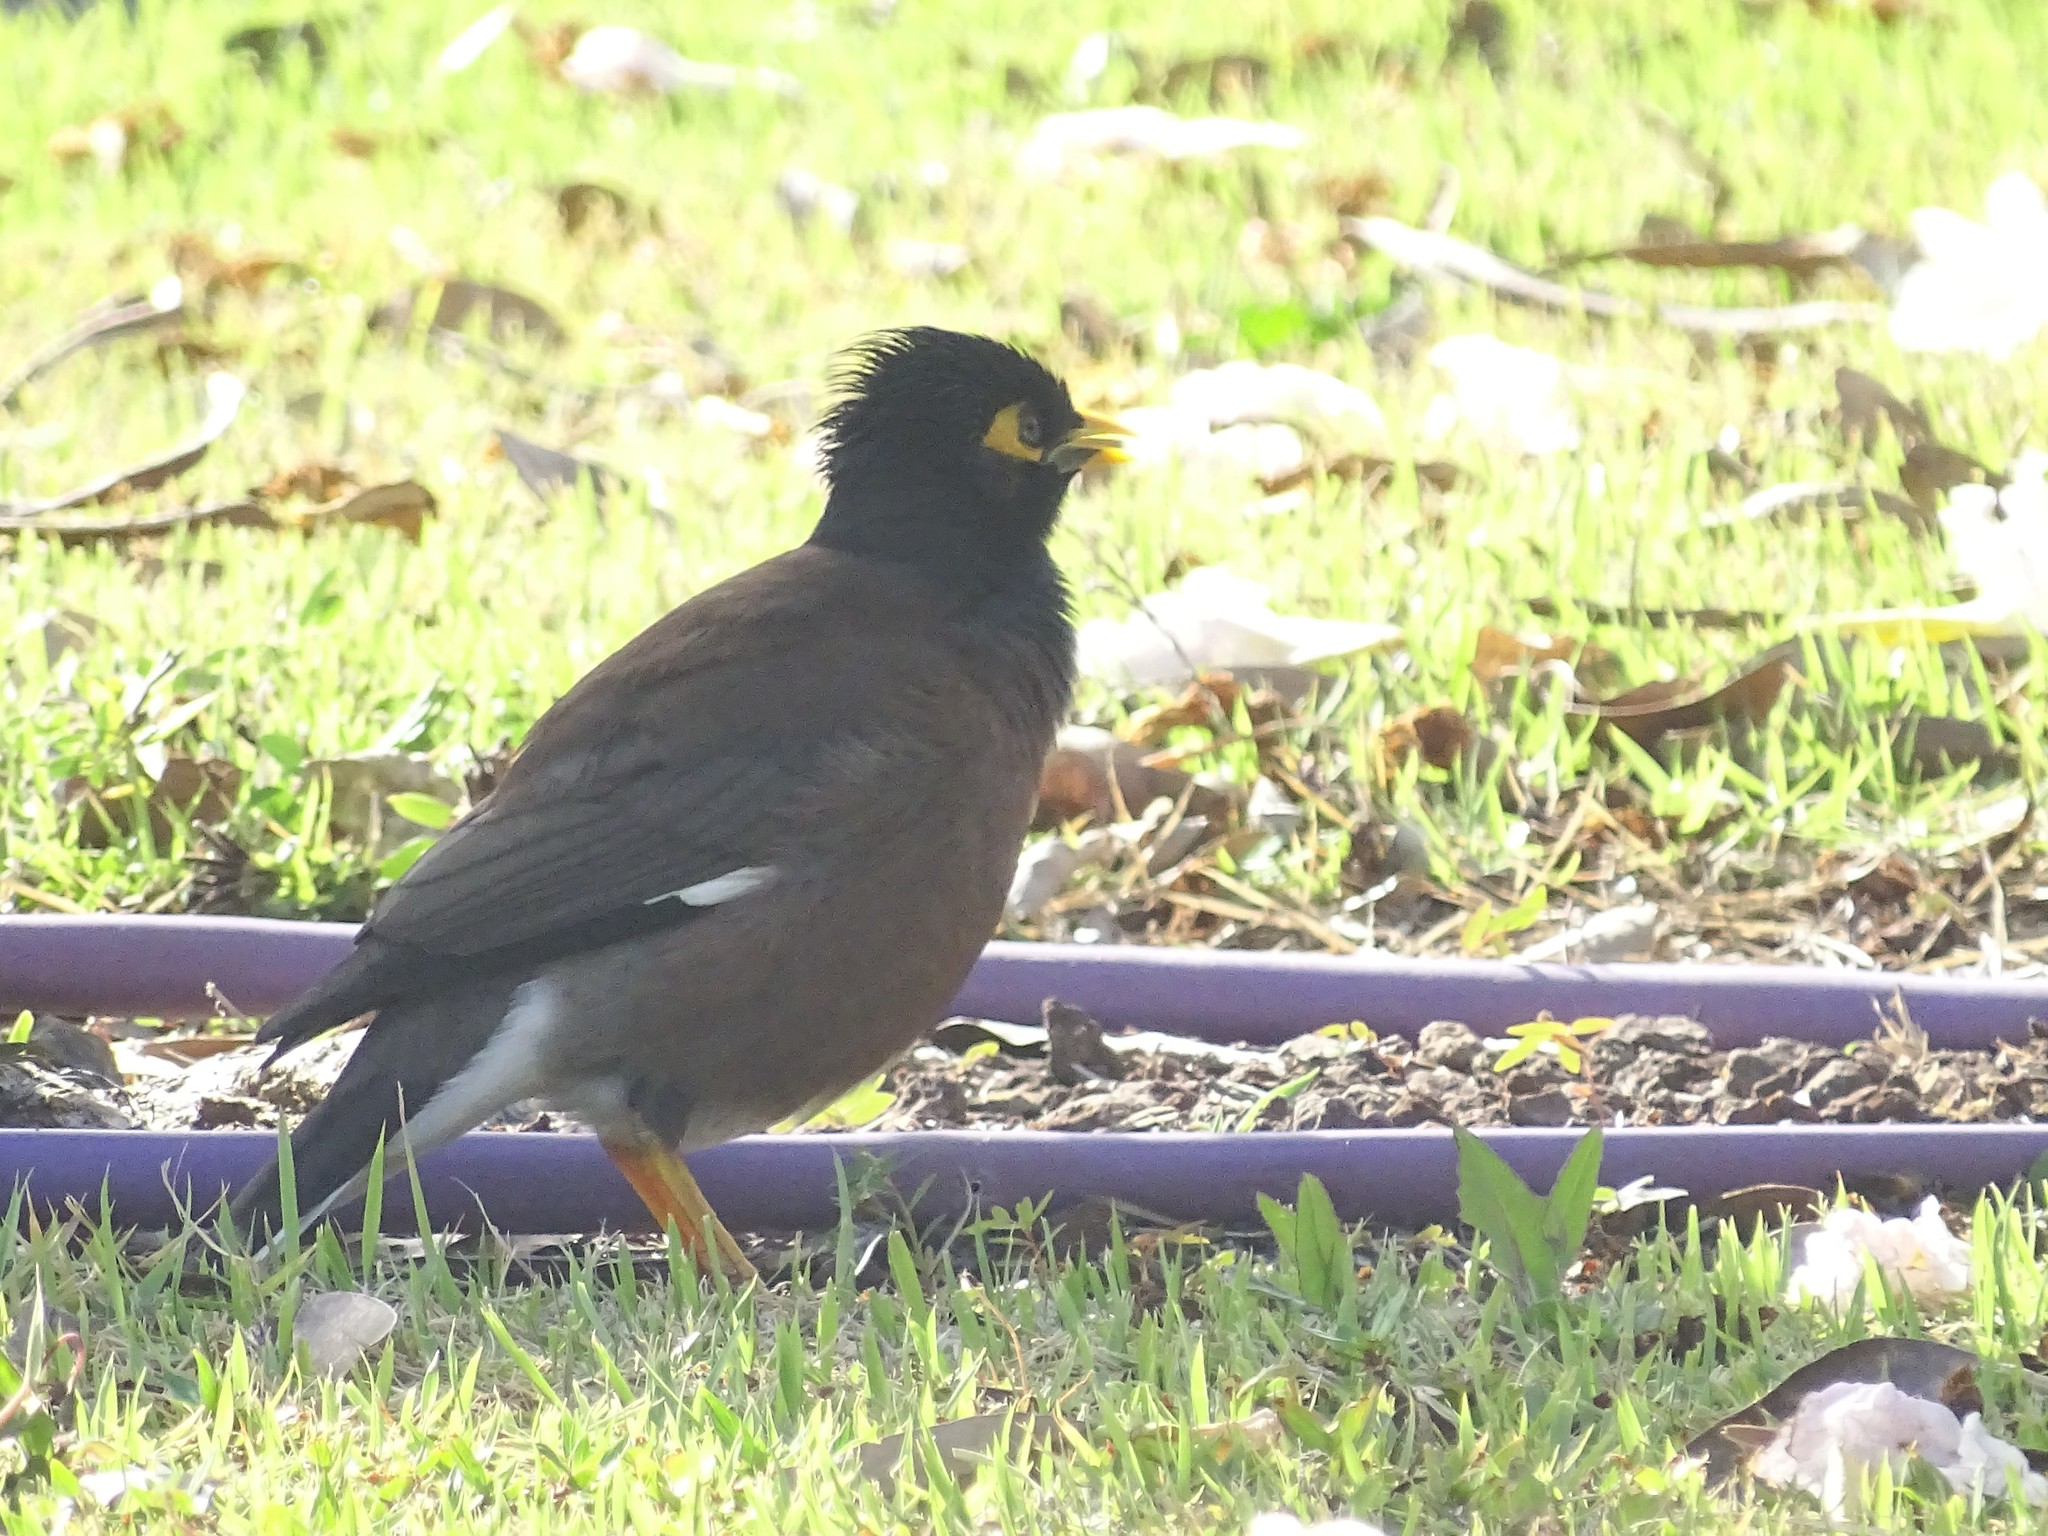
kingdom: Animalia
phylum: Chordata
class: Aves
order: Passeriformes
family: Sturnidae
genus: Acridotheres
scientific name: Acridotheres tristis
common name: Common myna
